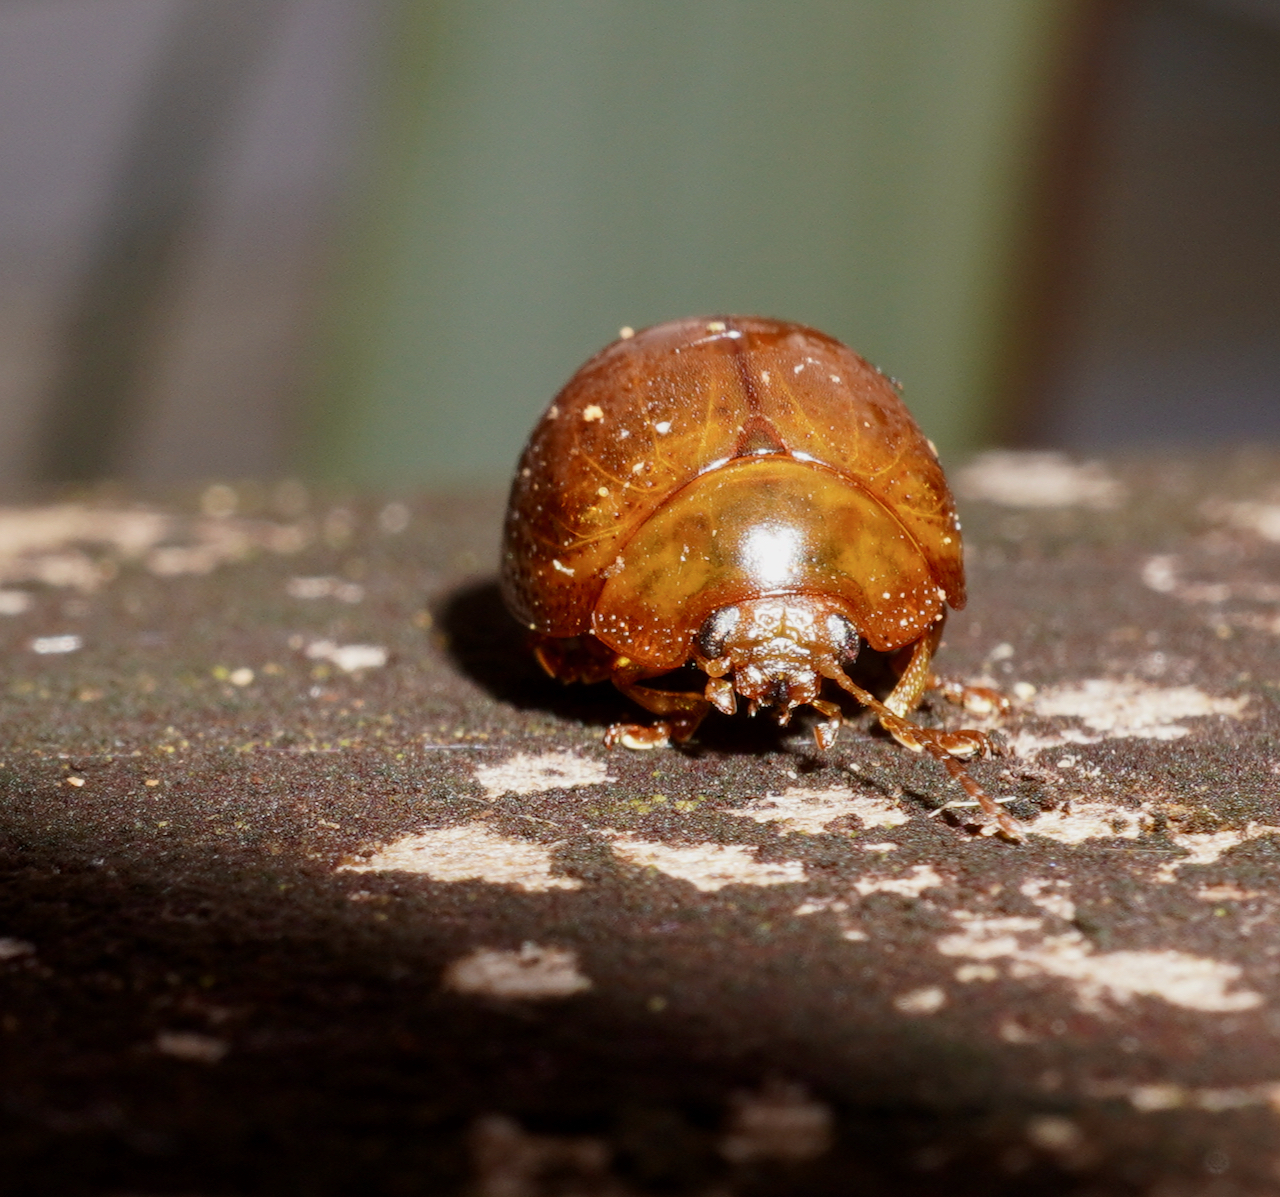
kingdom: Animalia
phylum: Arthropoda
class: Insecta
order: Coleoptera
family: Chrysomelidae
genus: Dicranosterna
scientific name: Dicranosterna
